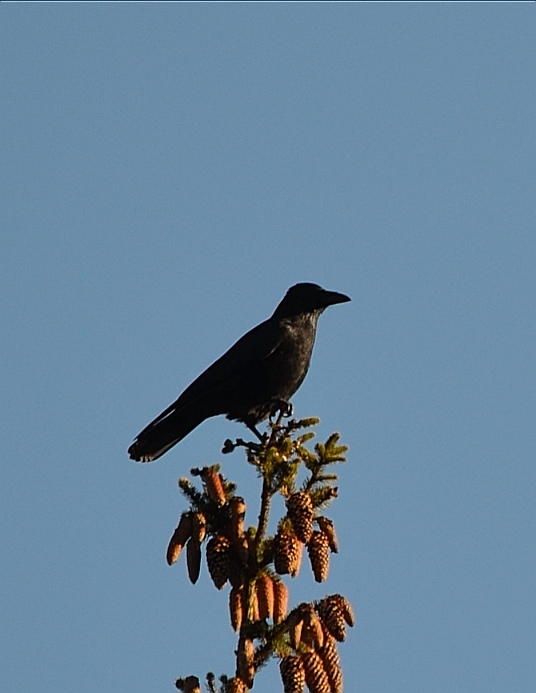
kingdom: Animalia
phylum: Chordata
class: Aves
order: Passeriformes
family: Corvidae
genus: Corvus
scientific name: Corvus corone
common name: Carrion crow
